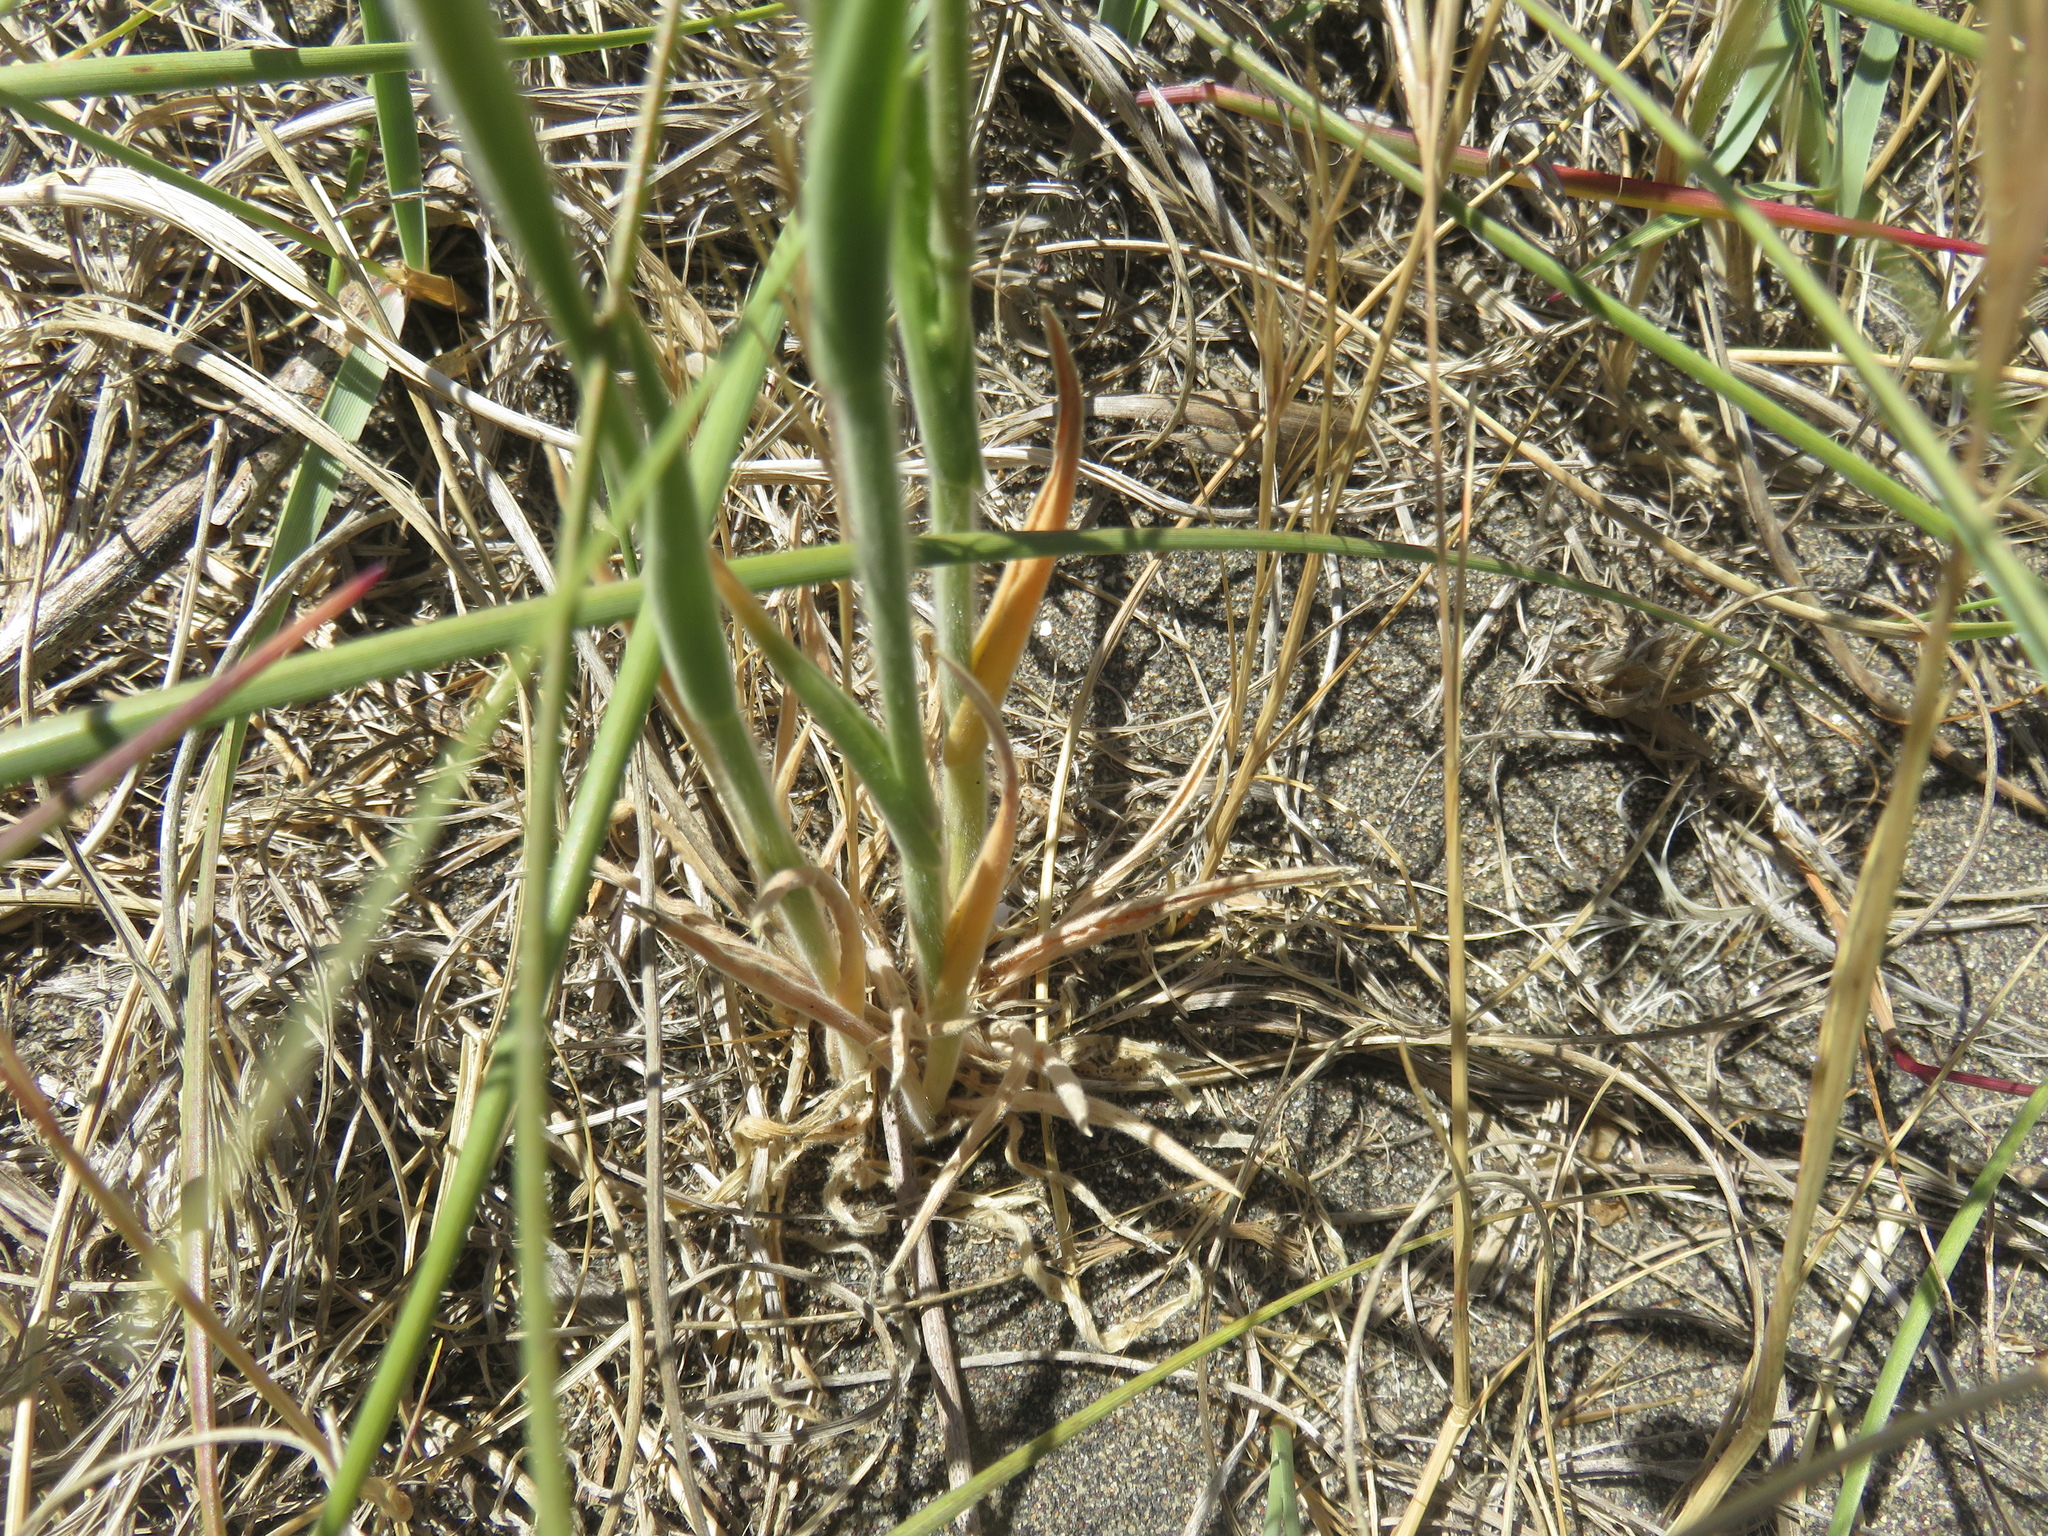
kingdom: Plantae
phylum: Tracheophyta
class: Liliopsida
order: Poales
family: Poaceae
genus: Lagurus
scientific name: Lagurus ovatus
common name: Hare's-tail
